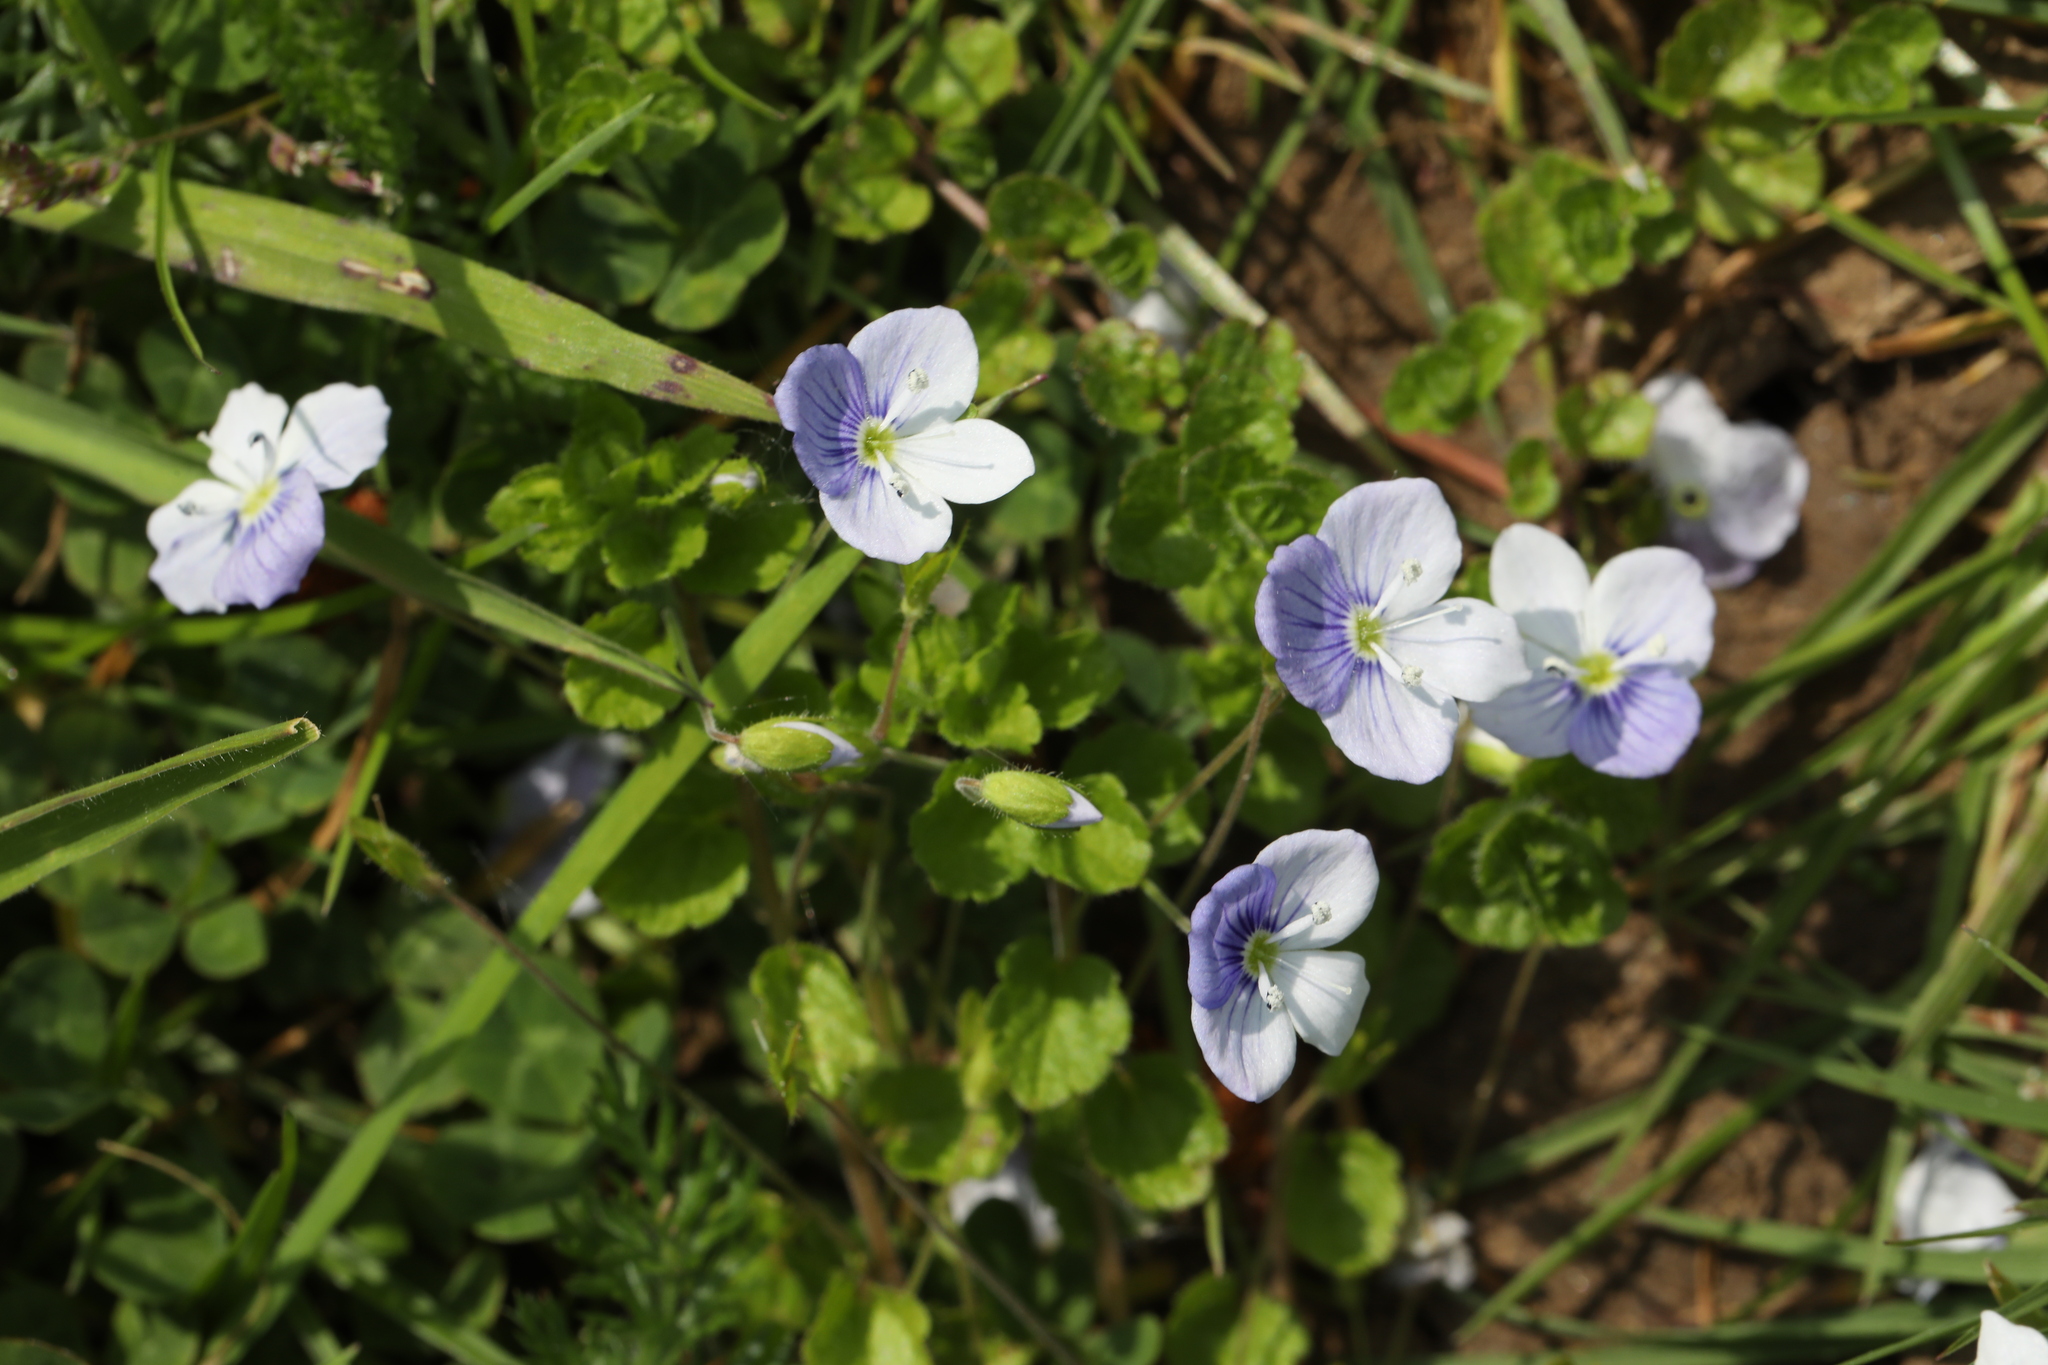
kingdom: Plantae
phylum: Tracheophyta
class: Magnoliopsida
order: Lamiales
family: Plantaginaceae
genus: Veronica
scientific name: Veronica filiformis
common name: Slender speedwell
